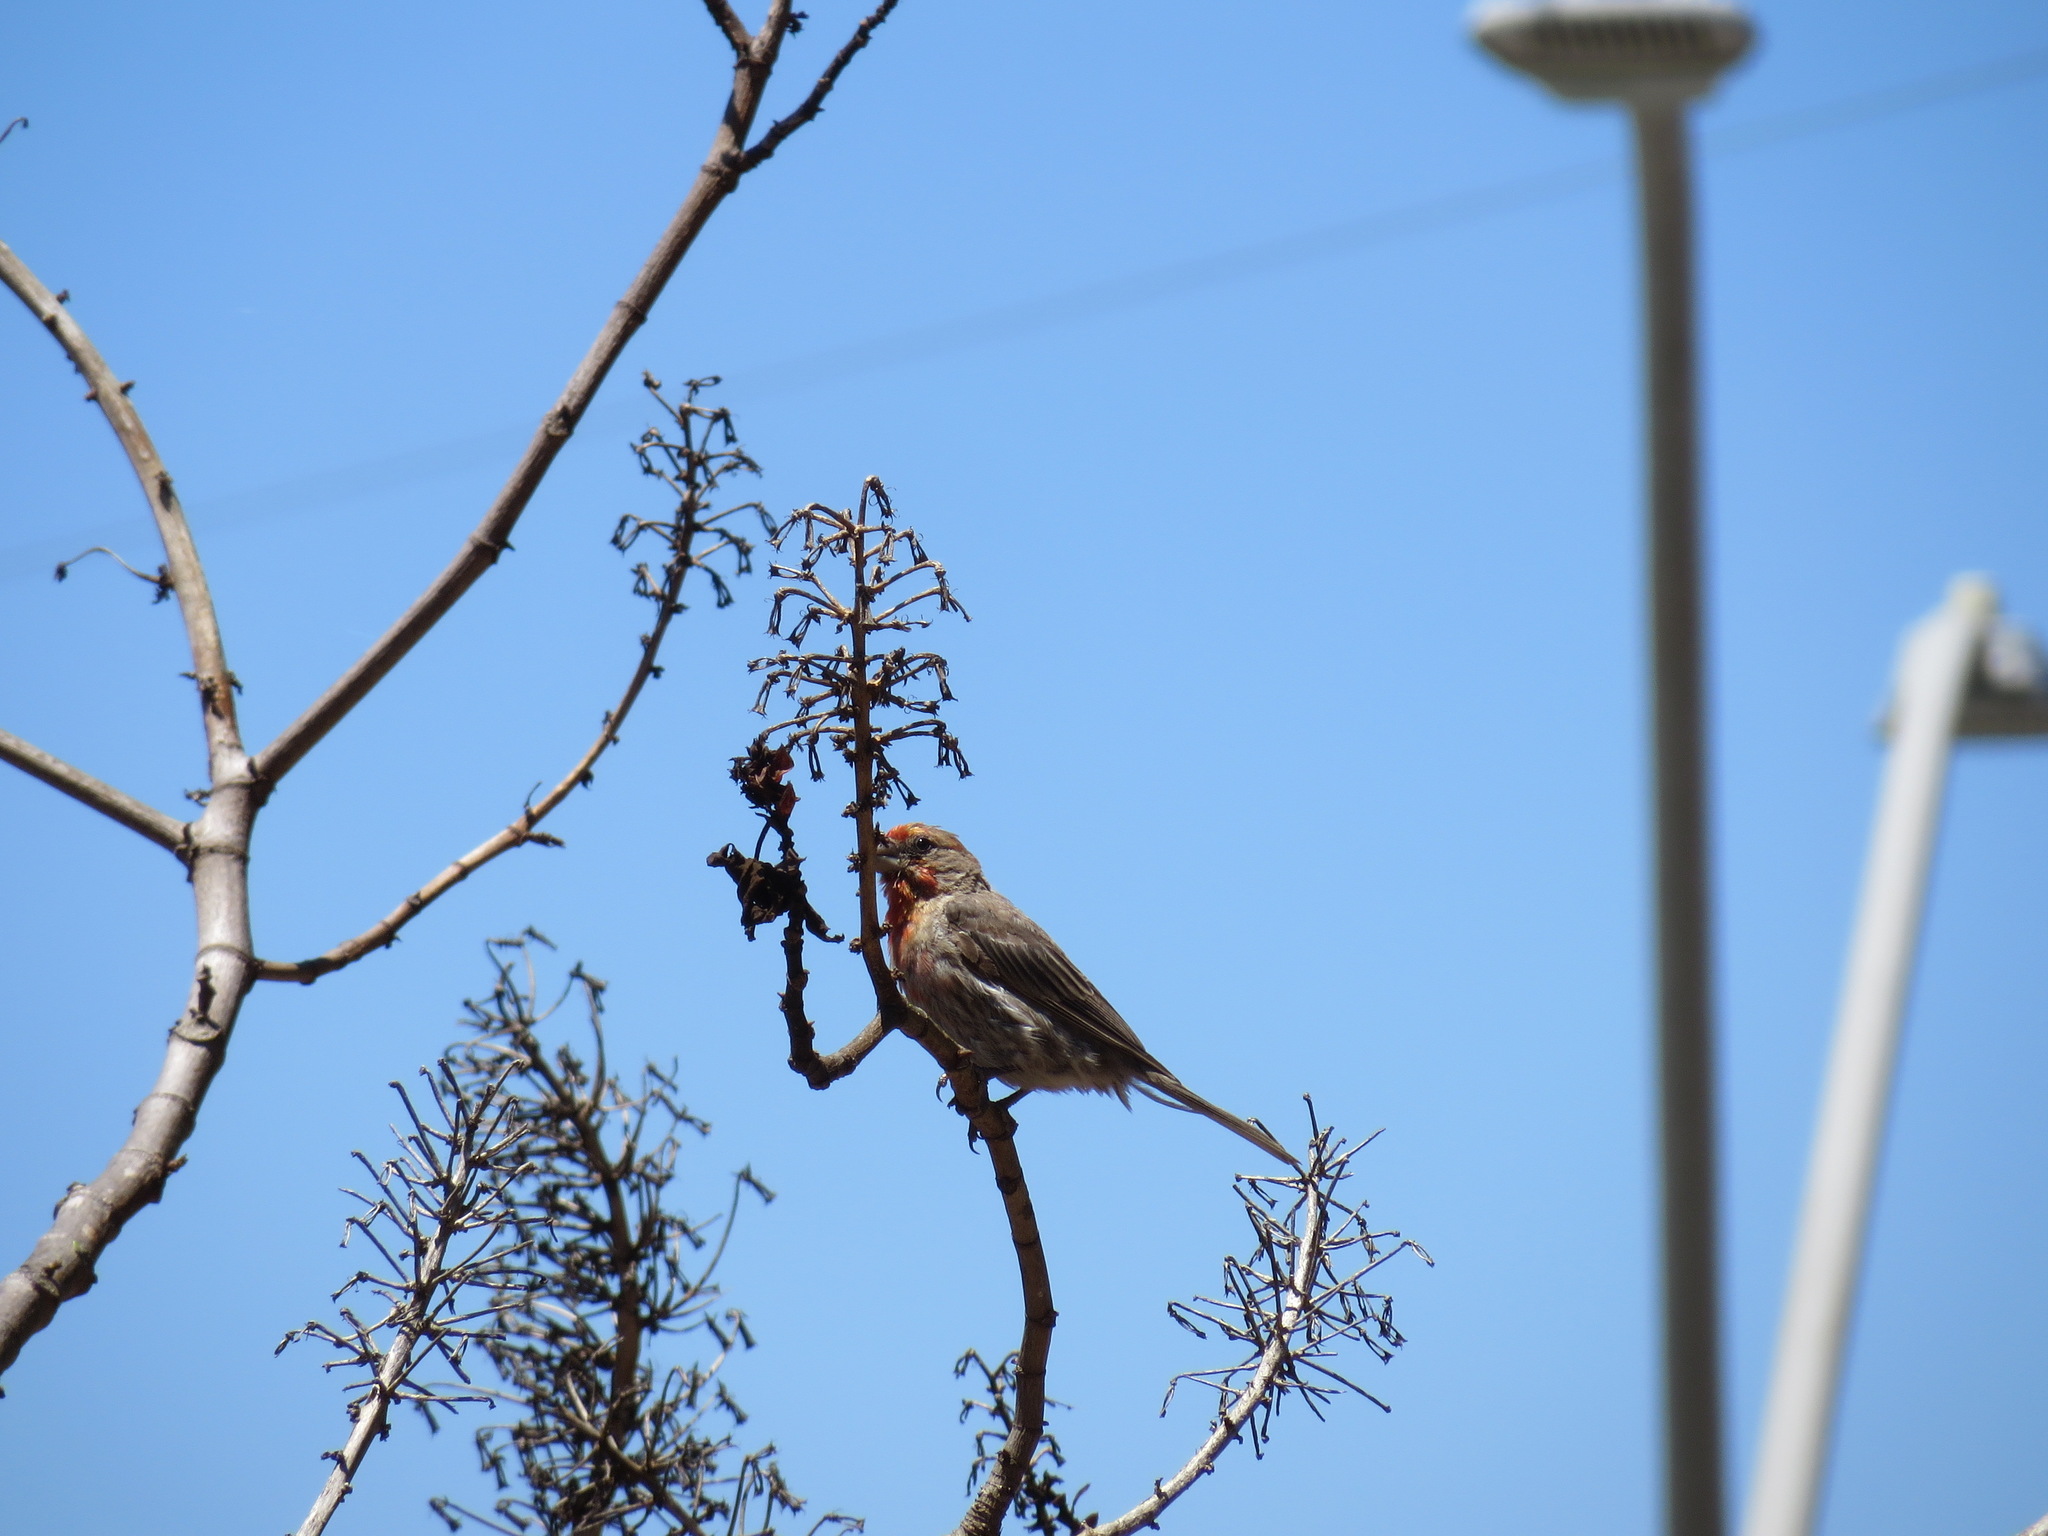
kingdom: Animalia
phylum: Chordata
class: Aves
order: Passeriformes
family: Fringillidae
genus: Haemorhous
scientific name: Haemorhous mexicanus
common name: House finch
